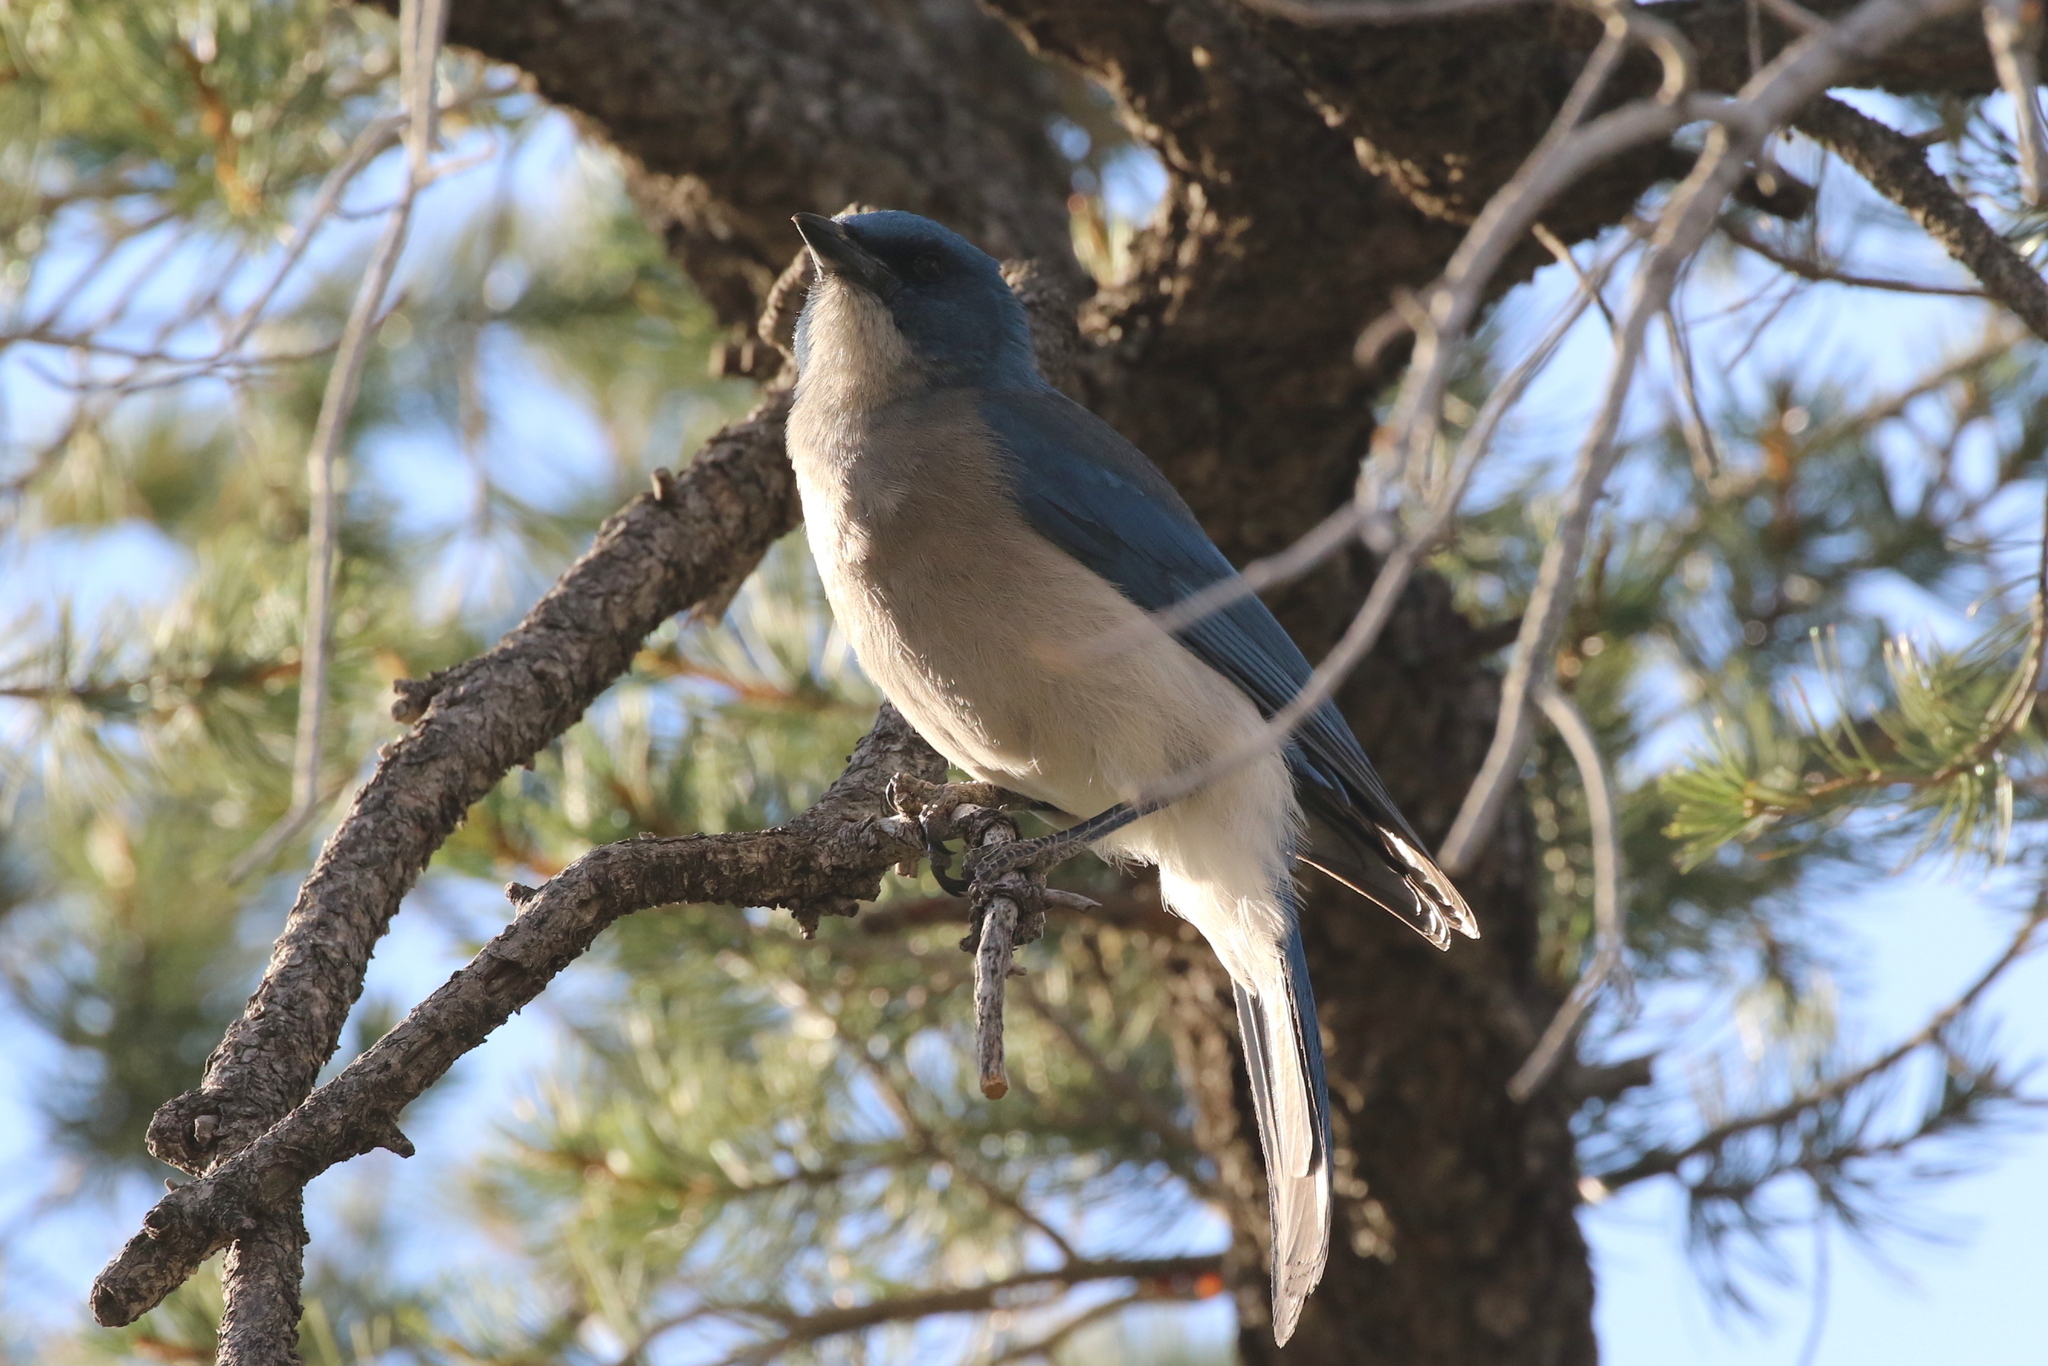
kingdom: Animalia
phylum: Chordata
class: Aves
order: Passeriformes
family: Corvidae
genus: Aphelocoma
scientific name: Aphelocoma wollweberi
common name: Mexican jay
